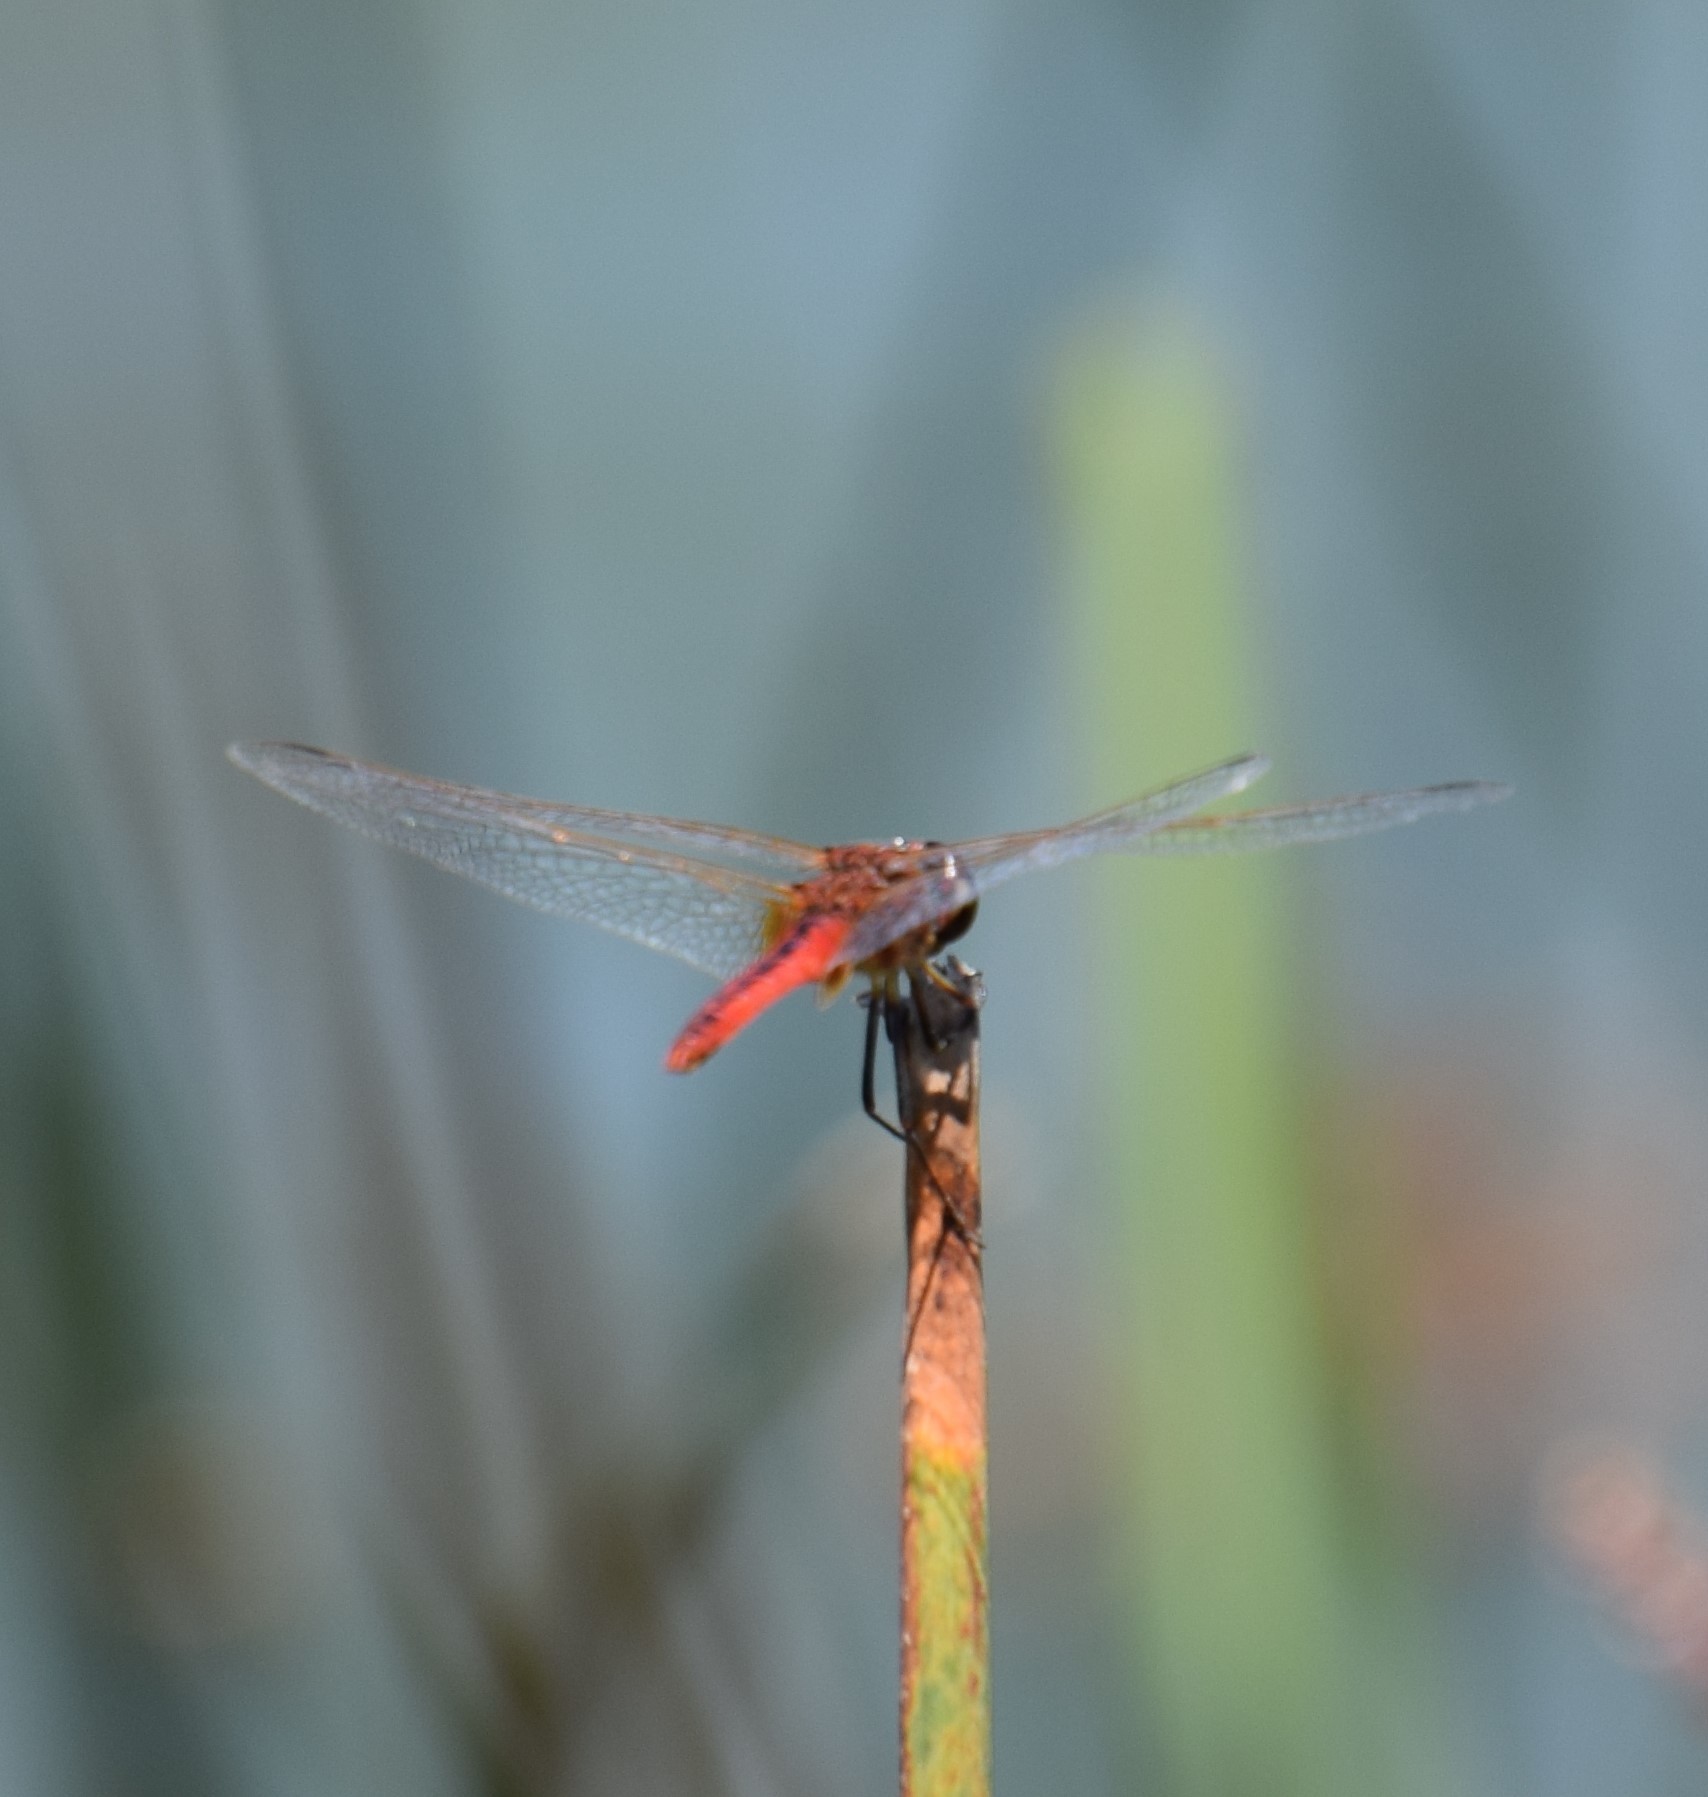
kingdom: Animalia
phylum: Arthropoda
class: Insecta
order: Odonata
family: Libellulidae
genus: Macrodiplax
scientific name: Macrodiplax cora
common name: Coastal glider
